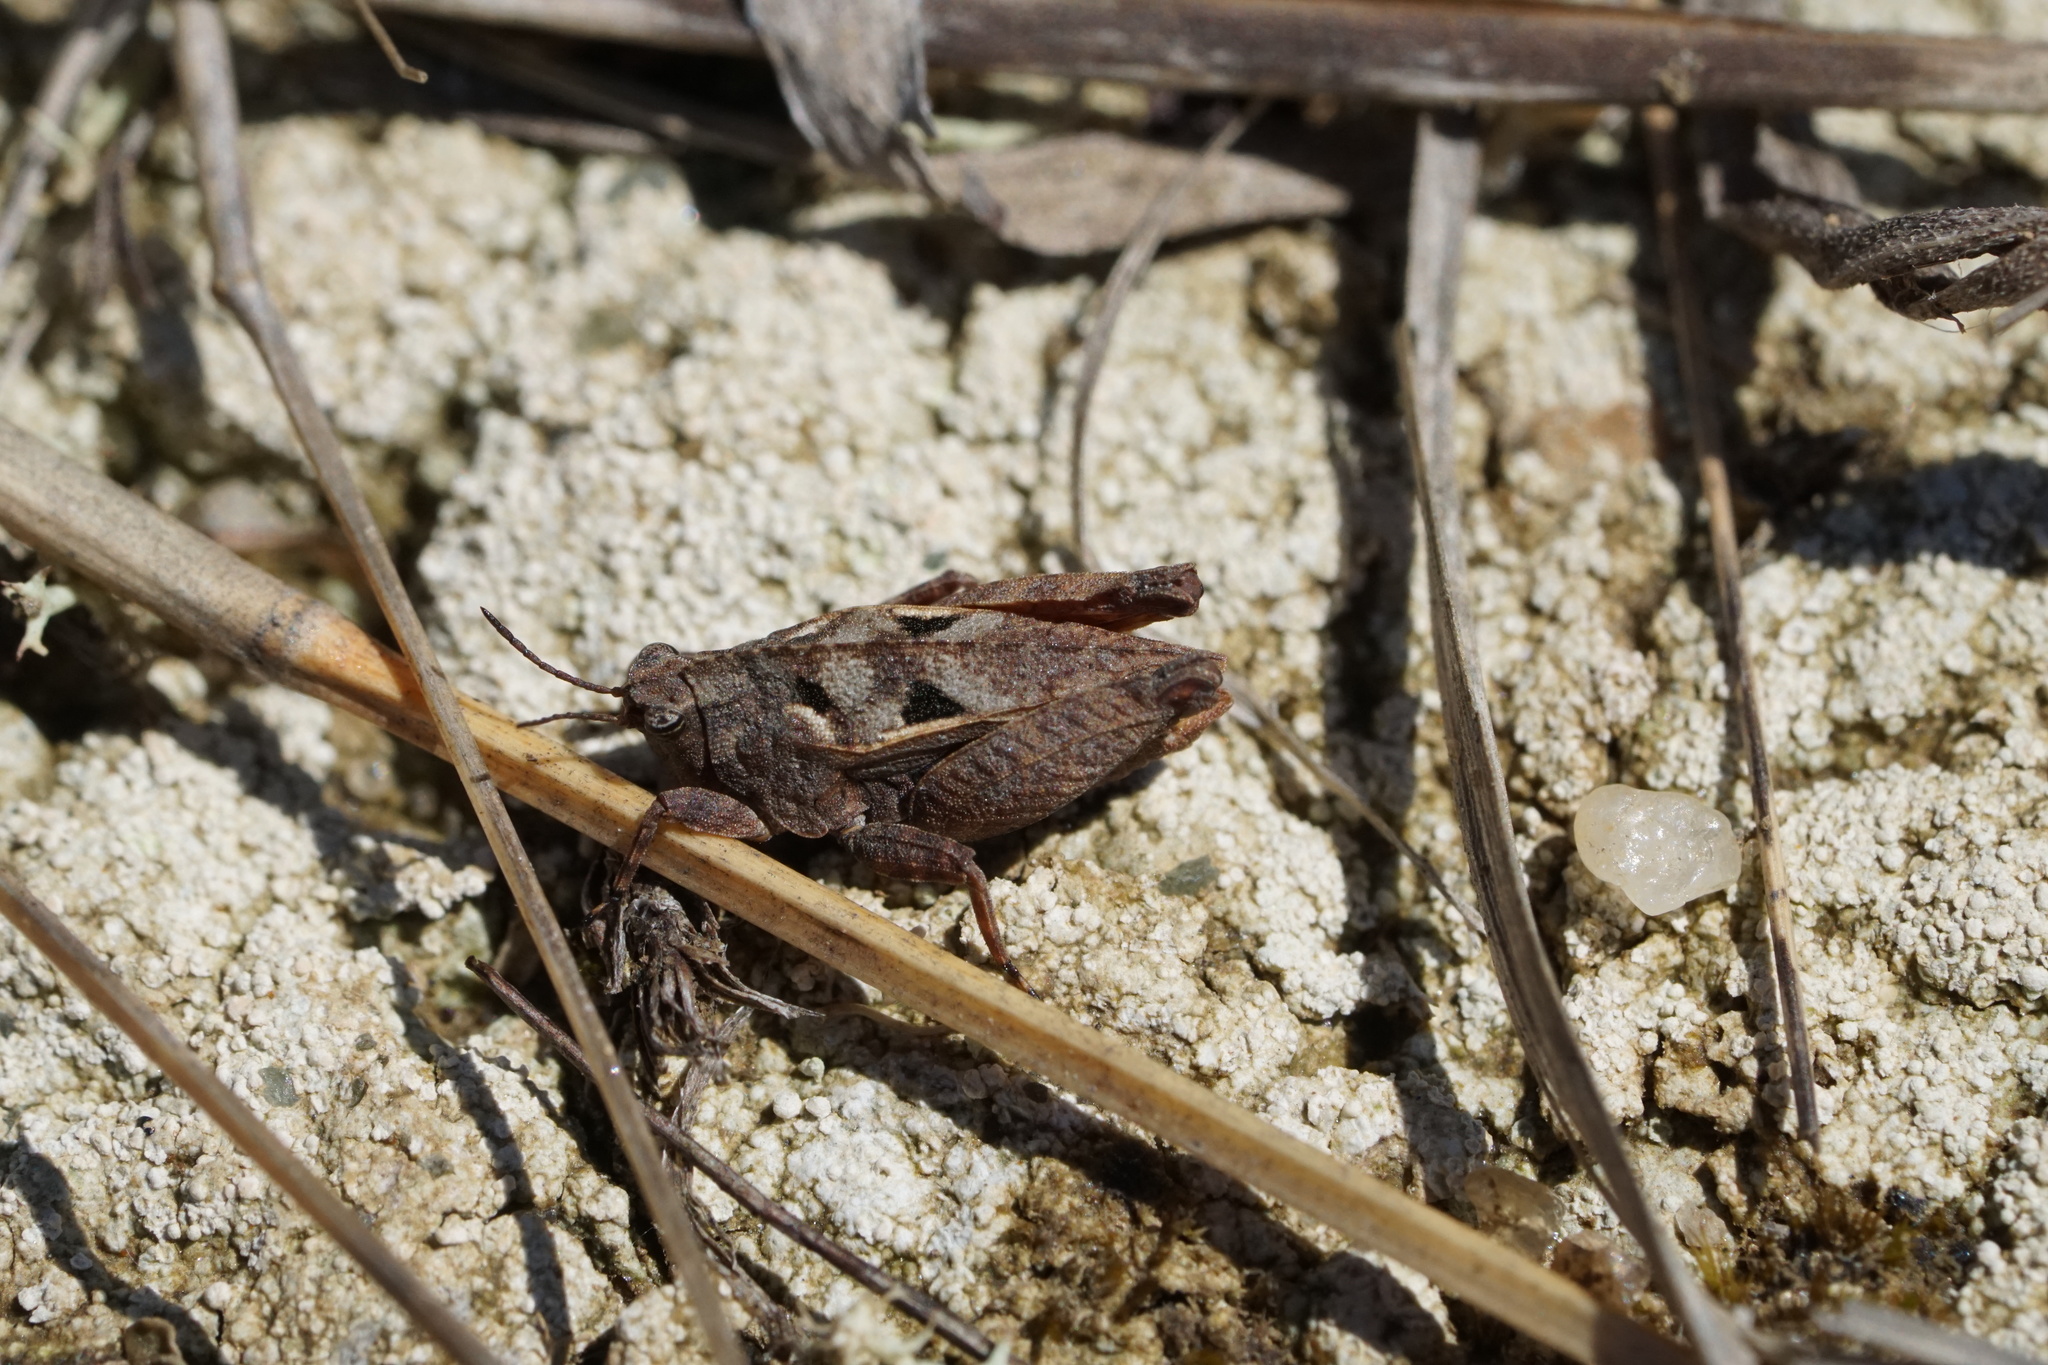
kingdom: Animalia
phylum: Arthropoda
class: Insecta
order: Orthoptera
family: Tetrigidae
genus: Nomotettix
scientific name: Nomotettix cristatus
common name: Crested grouse locust
